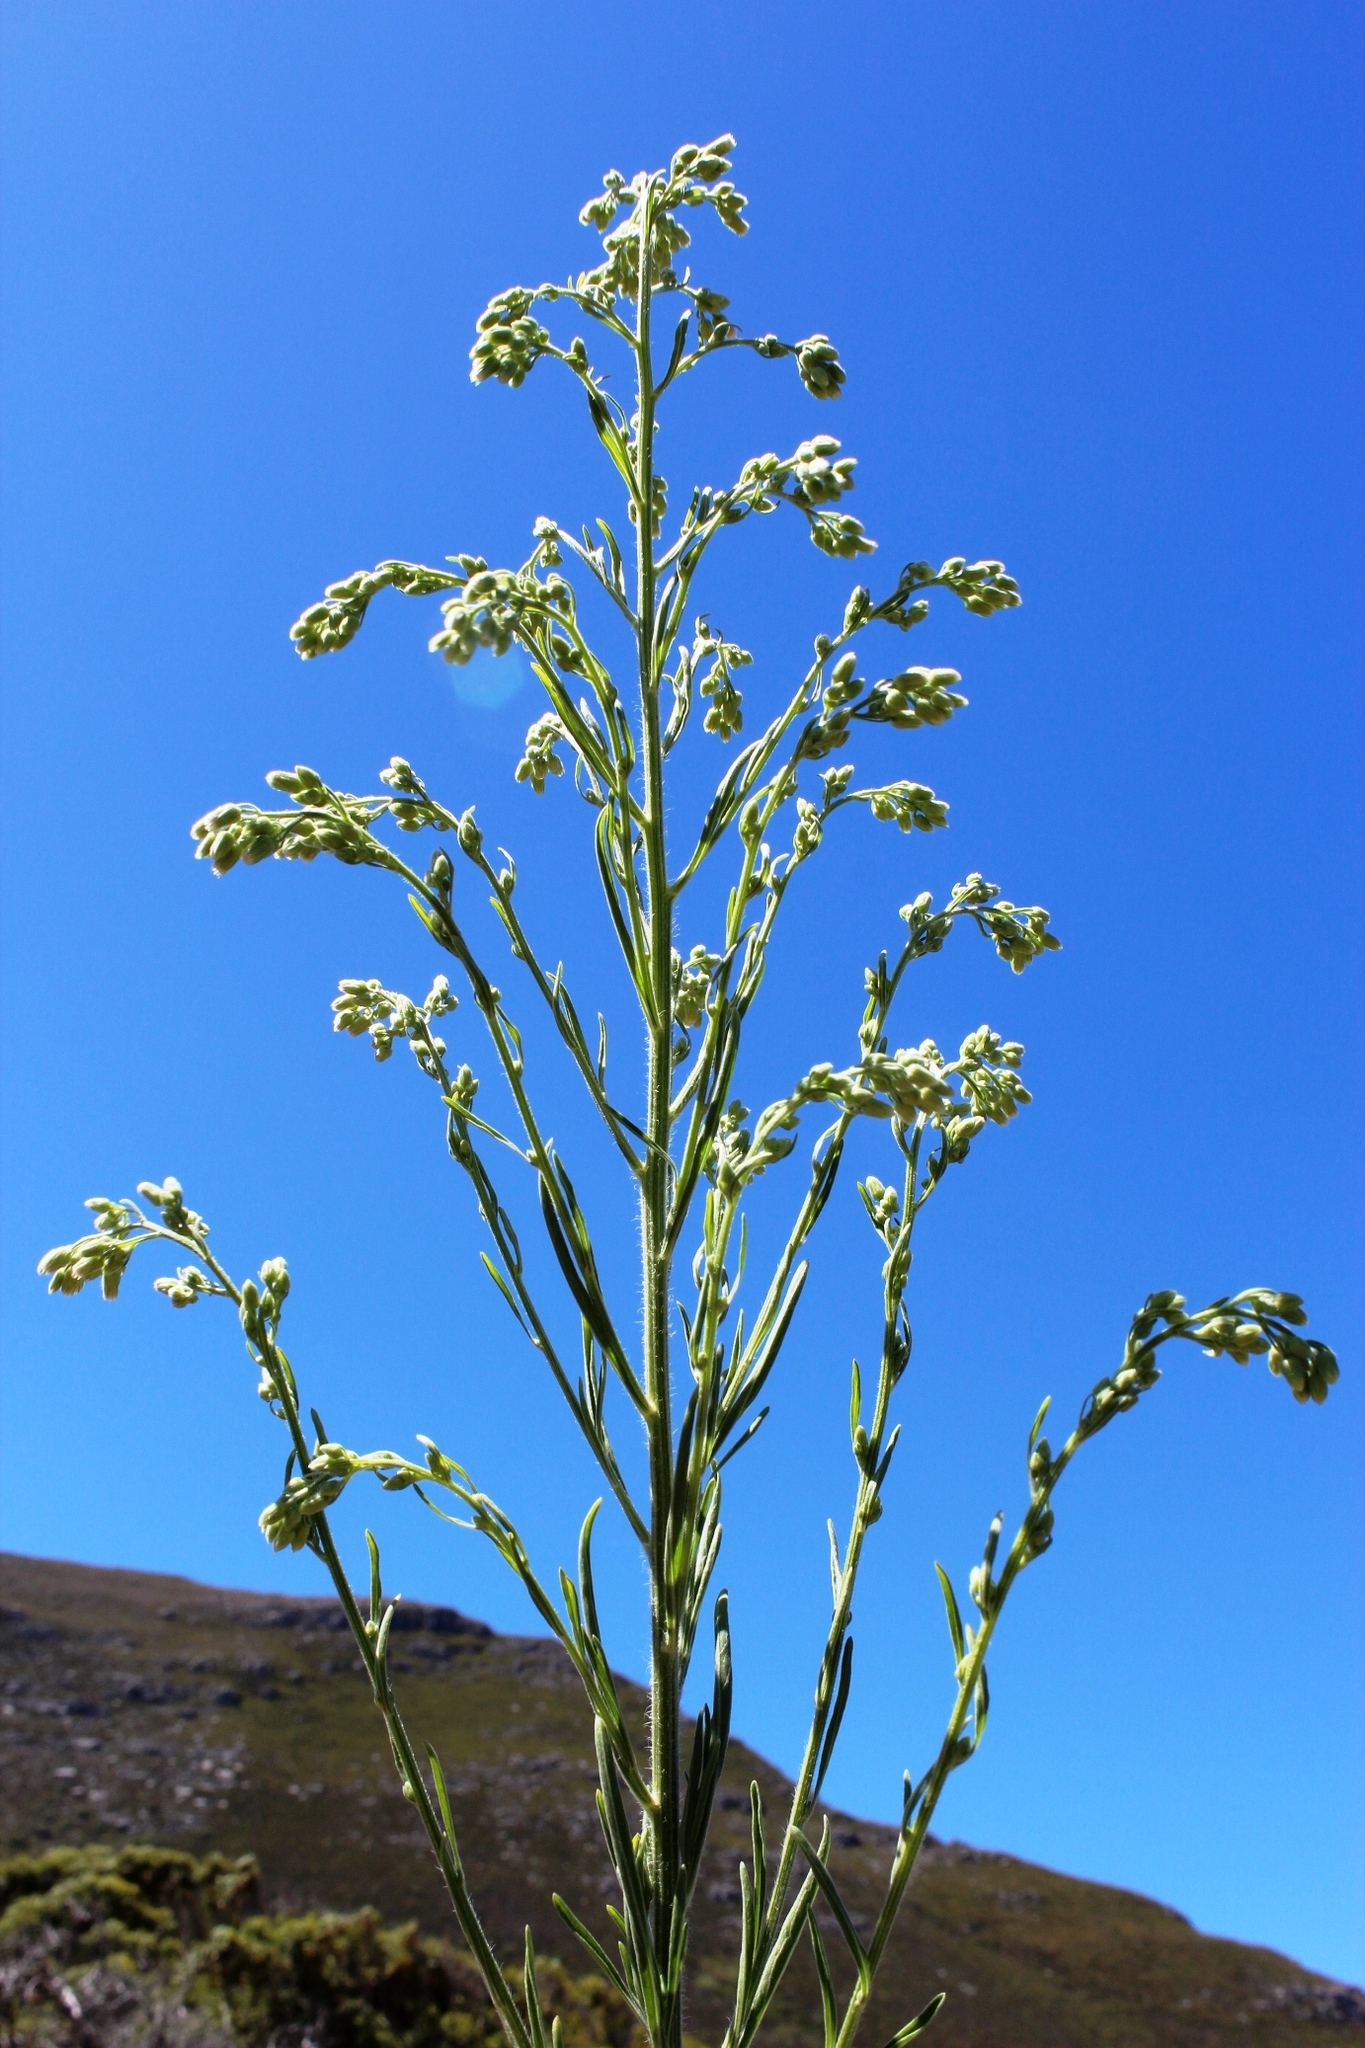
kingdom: Plantae
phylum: Tracheophyta
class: Magnoliopsida
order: Asterales
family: Asteraceae
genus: Erigeron
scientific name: Erigeron sumatrensis
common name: Daisy
